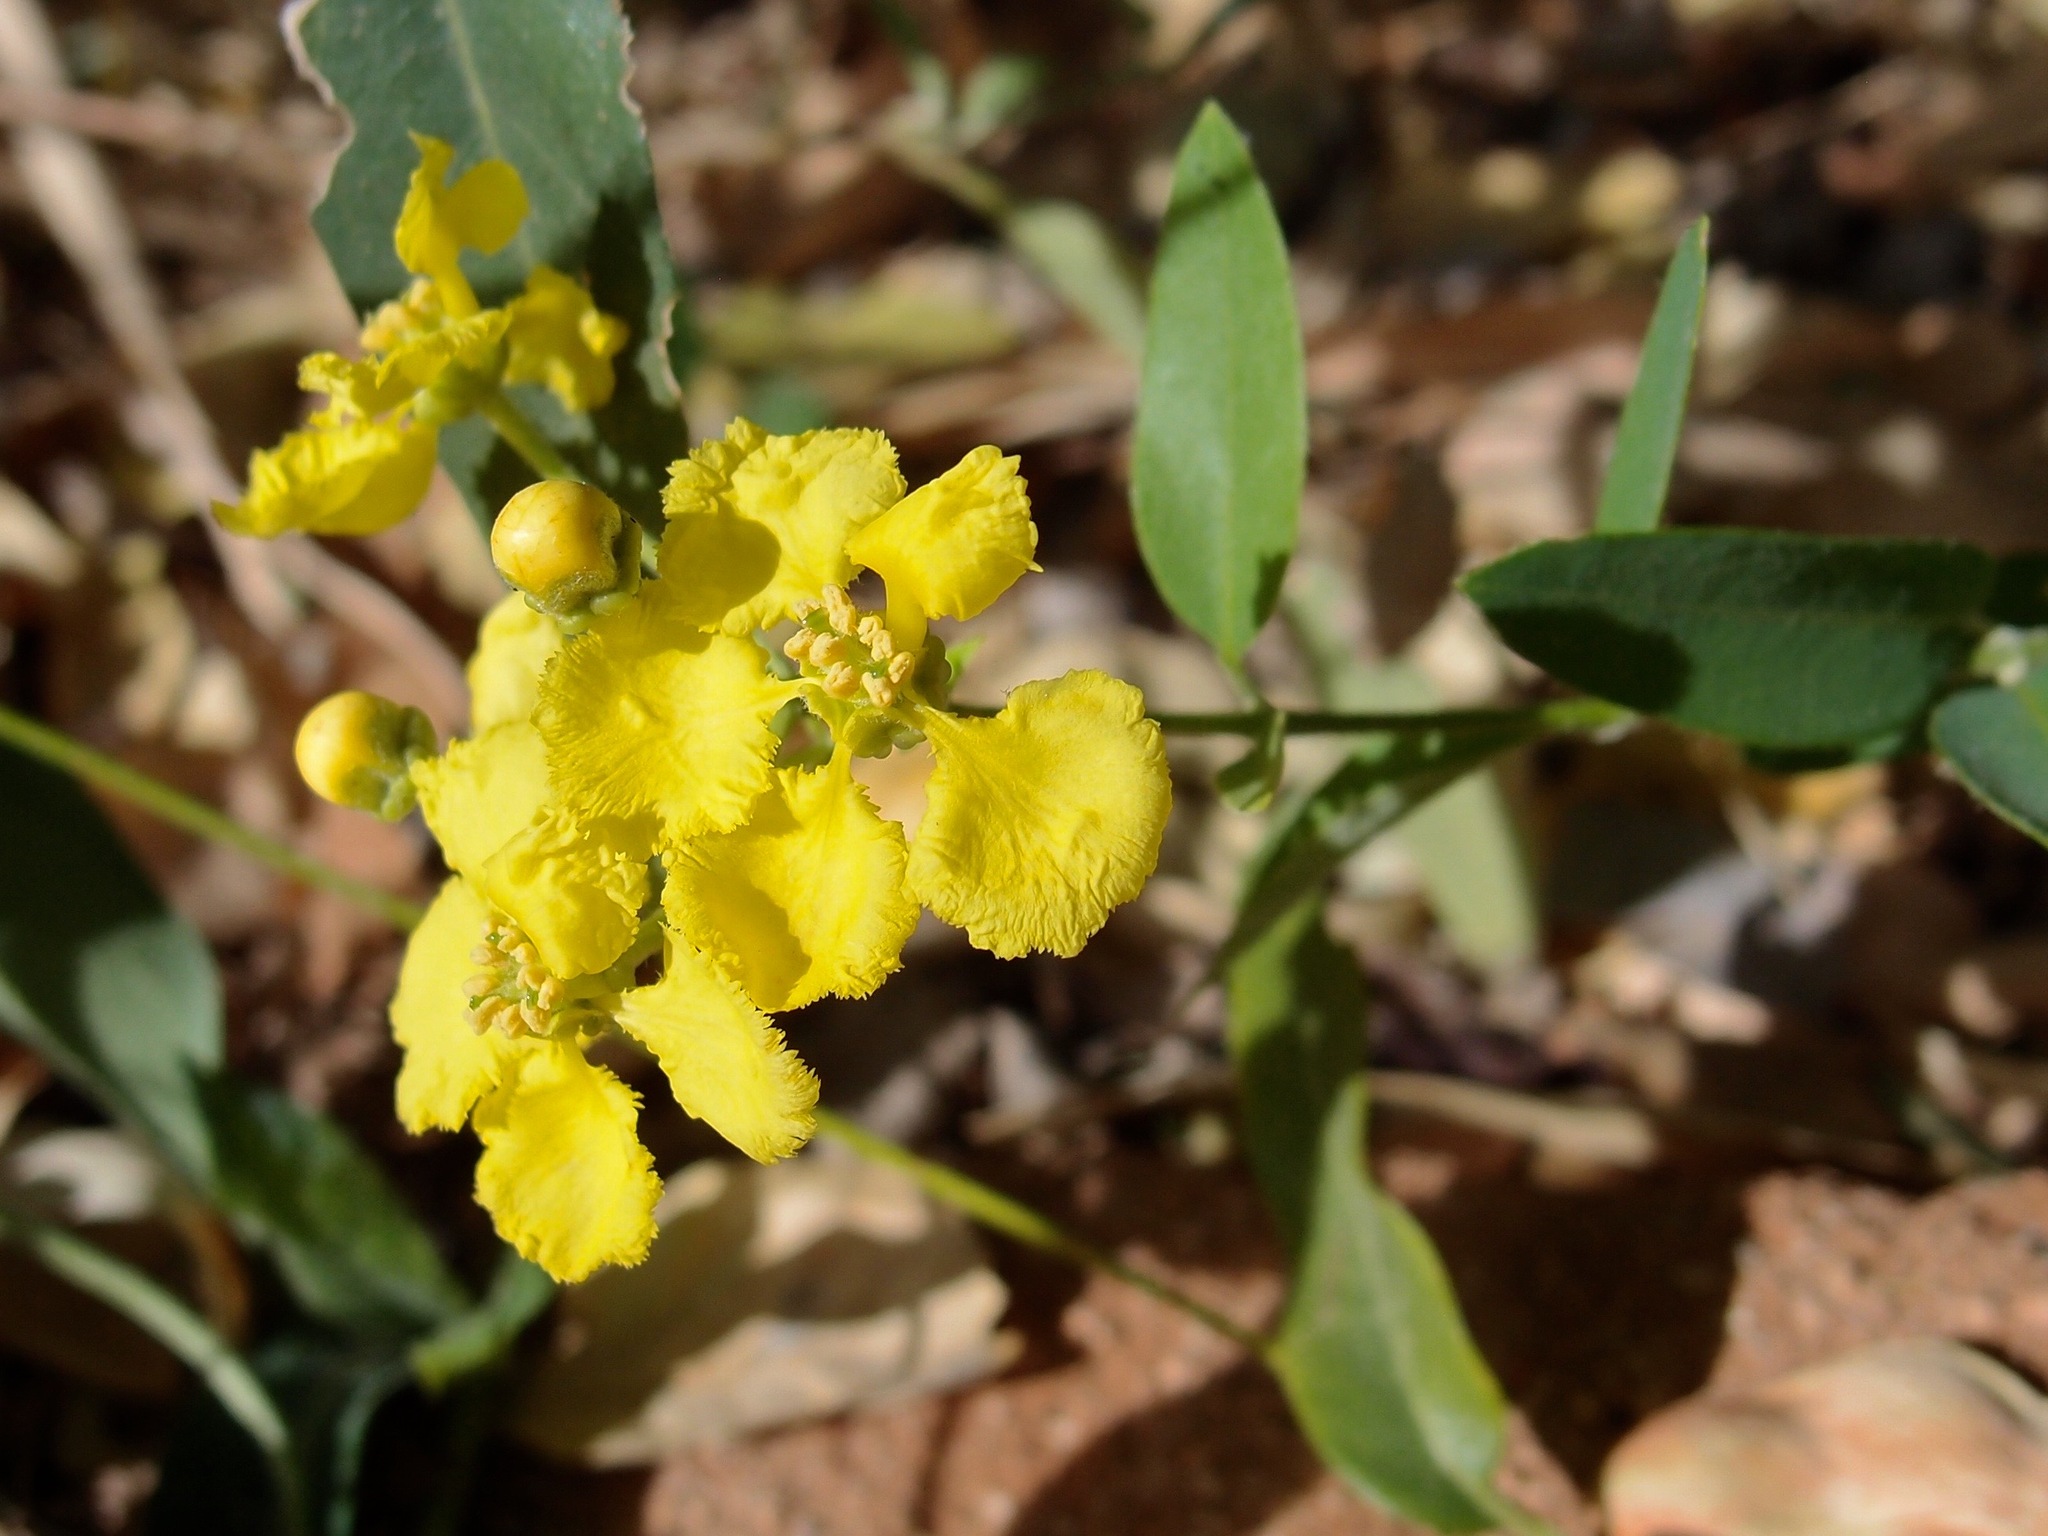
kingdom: Plantae
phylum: Tracheophyta
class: Magnoliopsida
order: Malpighiales
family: Malpighiaceae
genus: Callaeum
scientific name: Callaeum macropterum
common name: Mexican butterfly-vine
